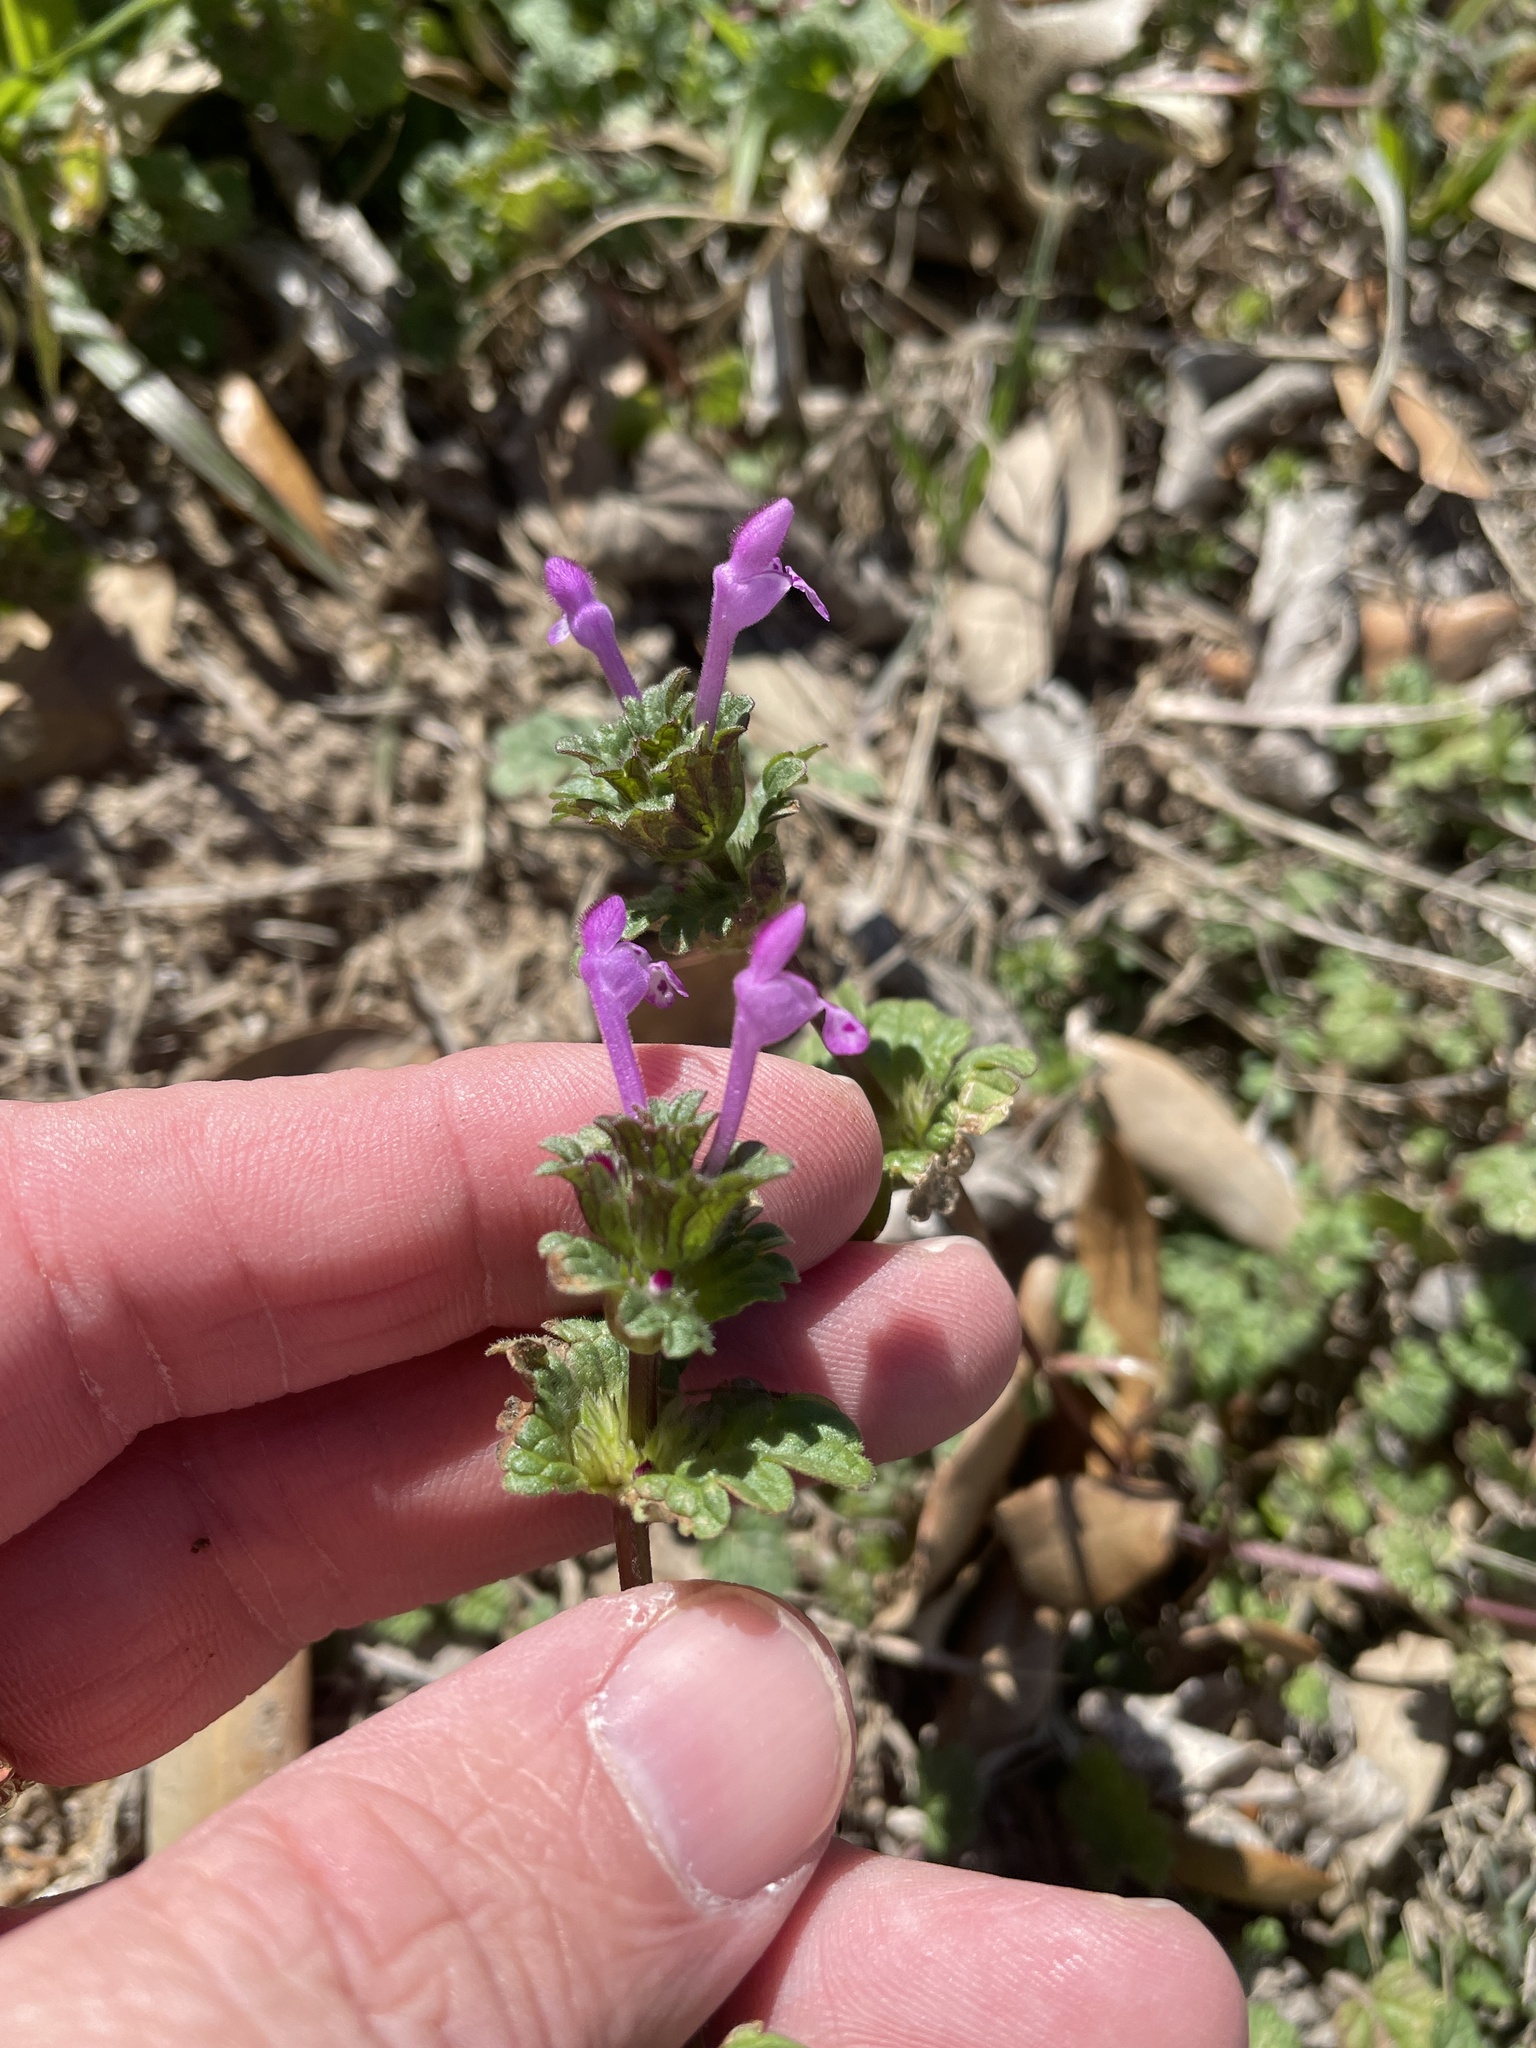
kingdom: Plantae
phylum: Tracheophyta
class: Magnoliopsida
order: Lamiales
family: Lamiaceae
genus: Lamium
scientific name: Lamium amplexicaule
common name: Henbit dead-nettle
